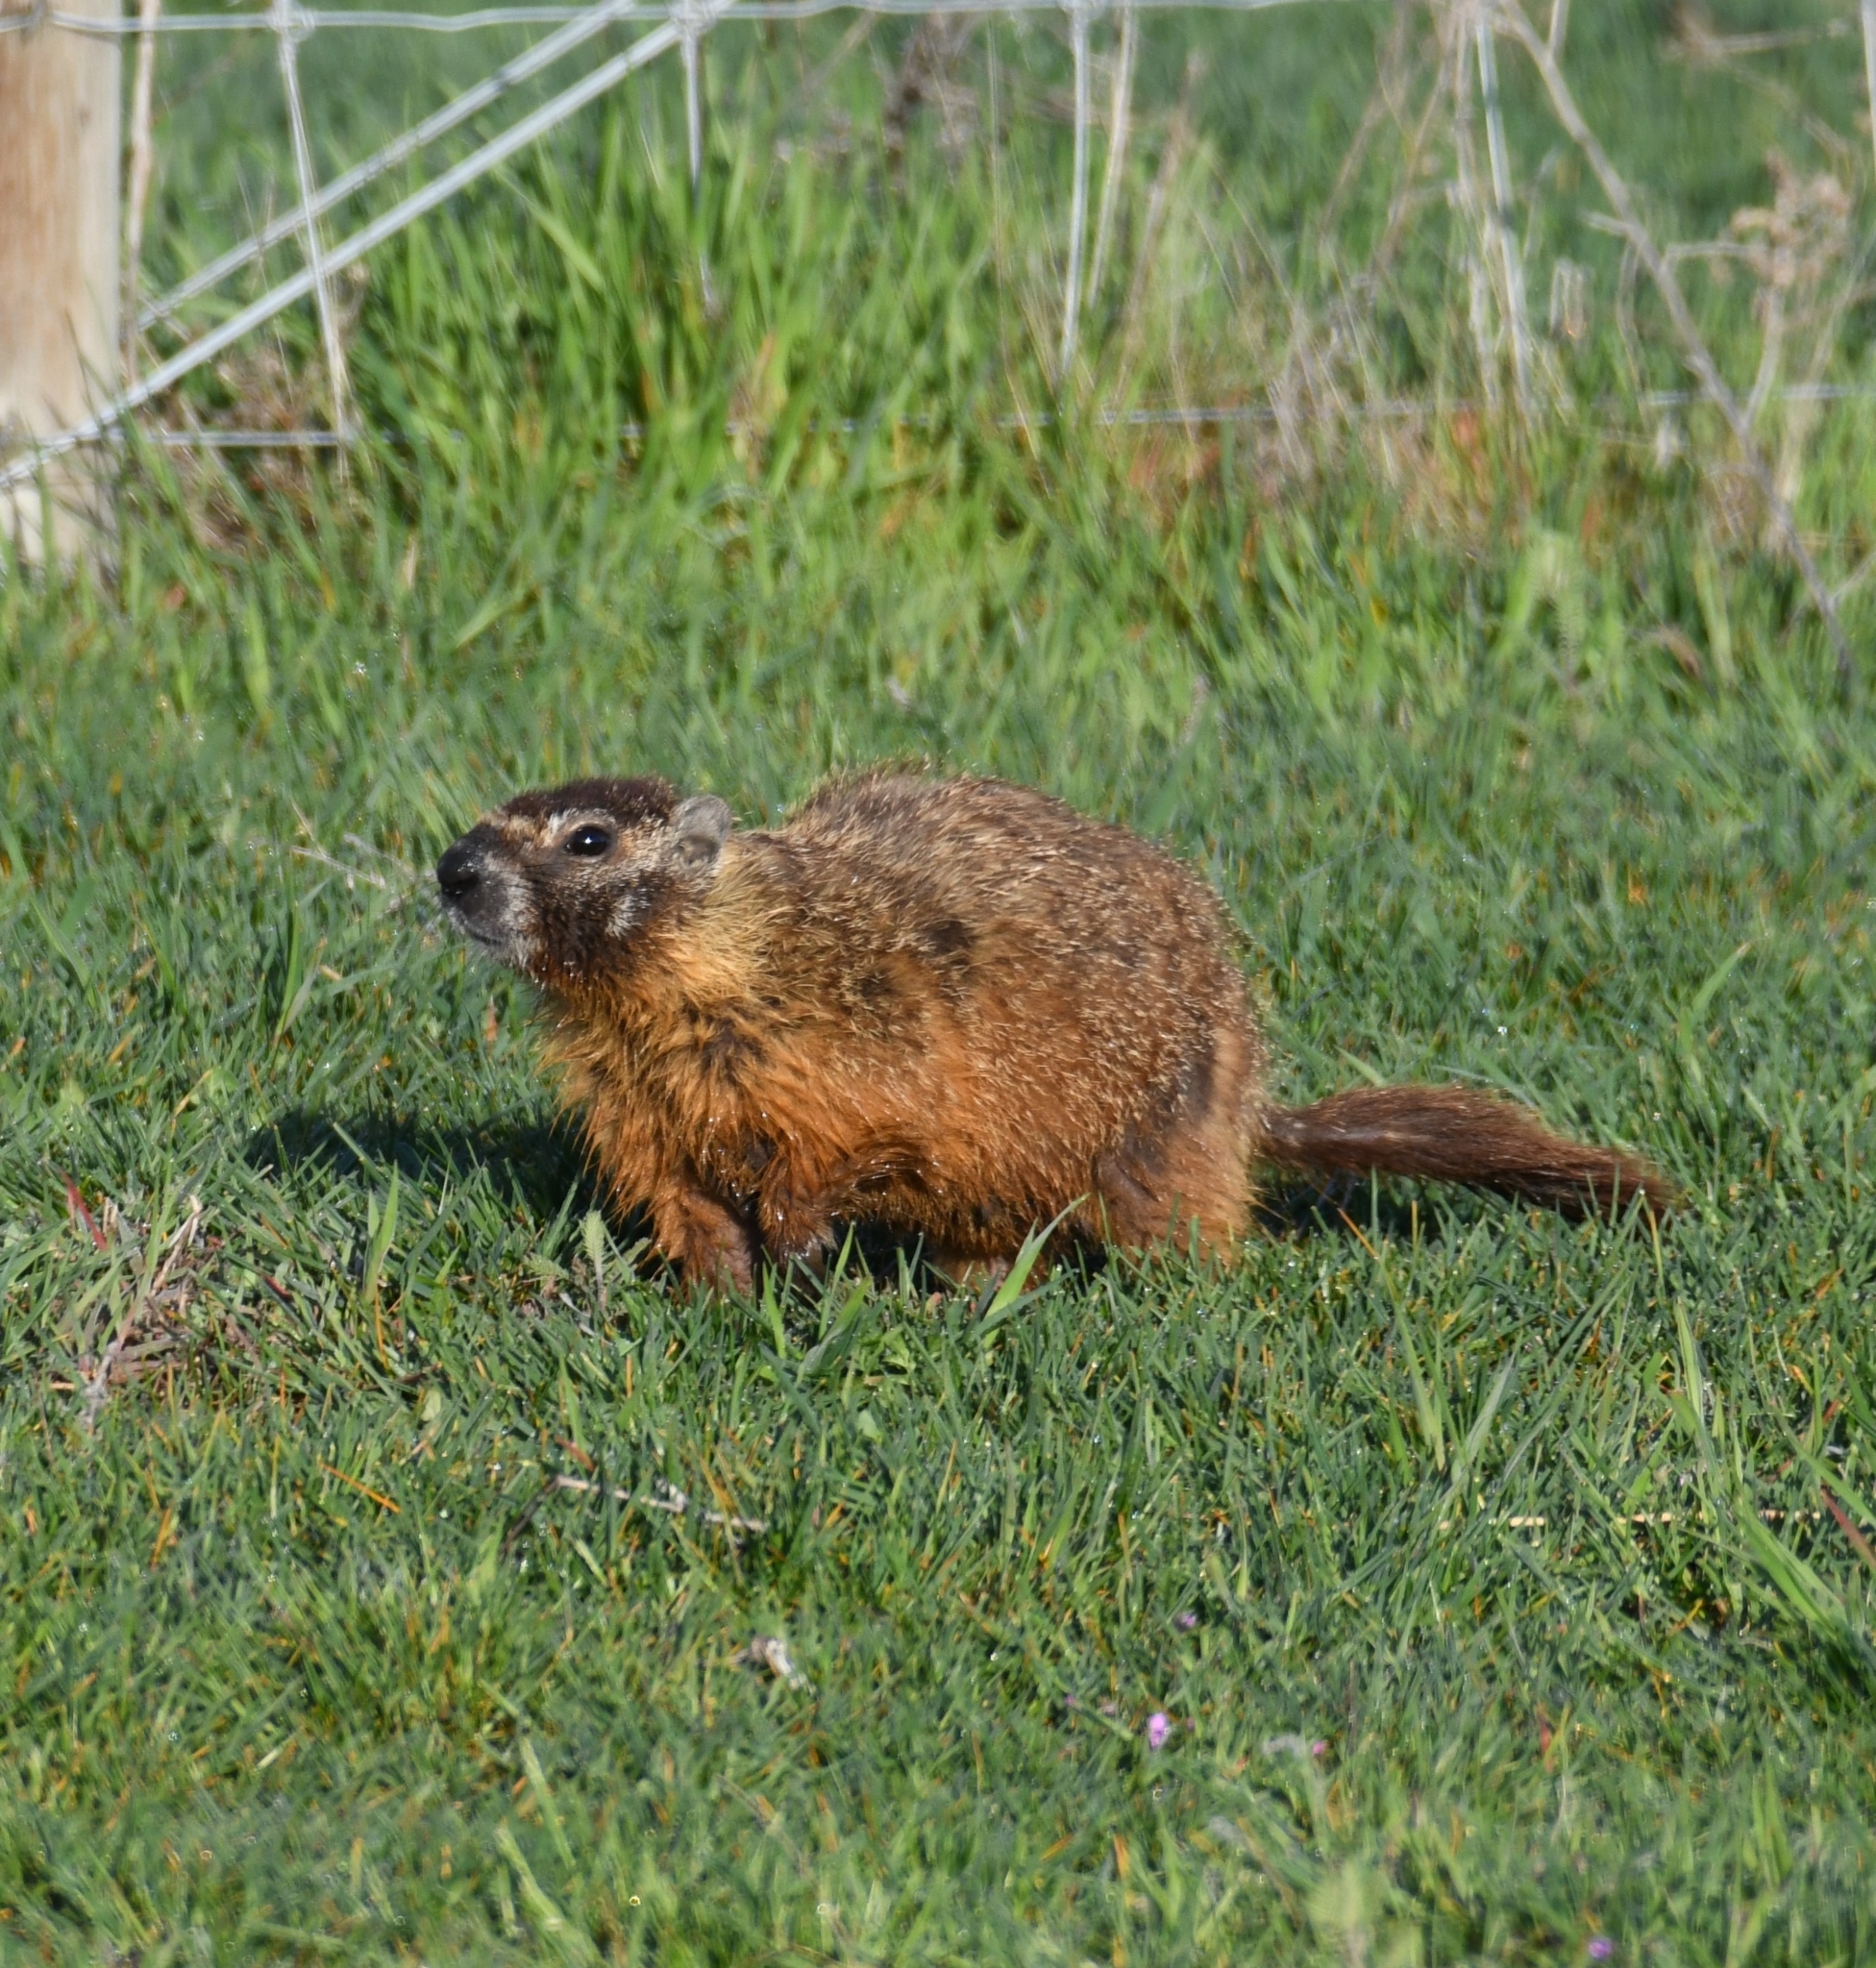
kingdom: Animalia
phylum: Chordata
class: Mammalia
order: Rodentia
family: Sciuridae
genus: Marmota
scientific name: Marmota flaviventris
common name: Yellow-bellied marmot
